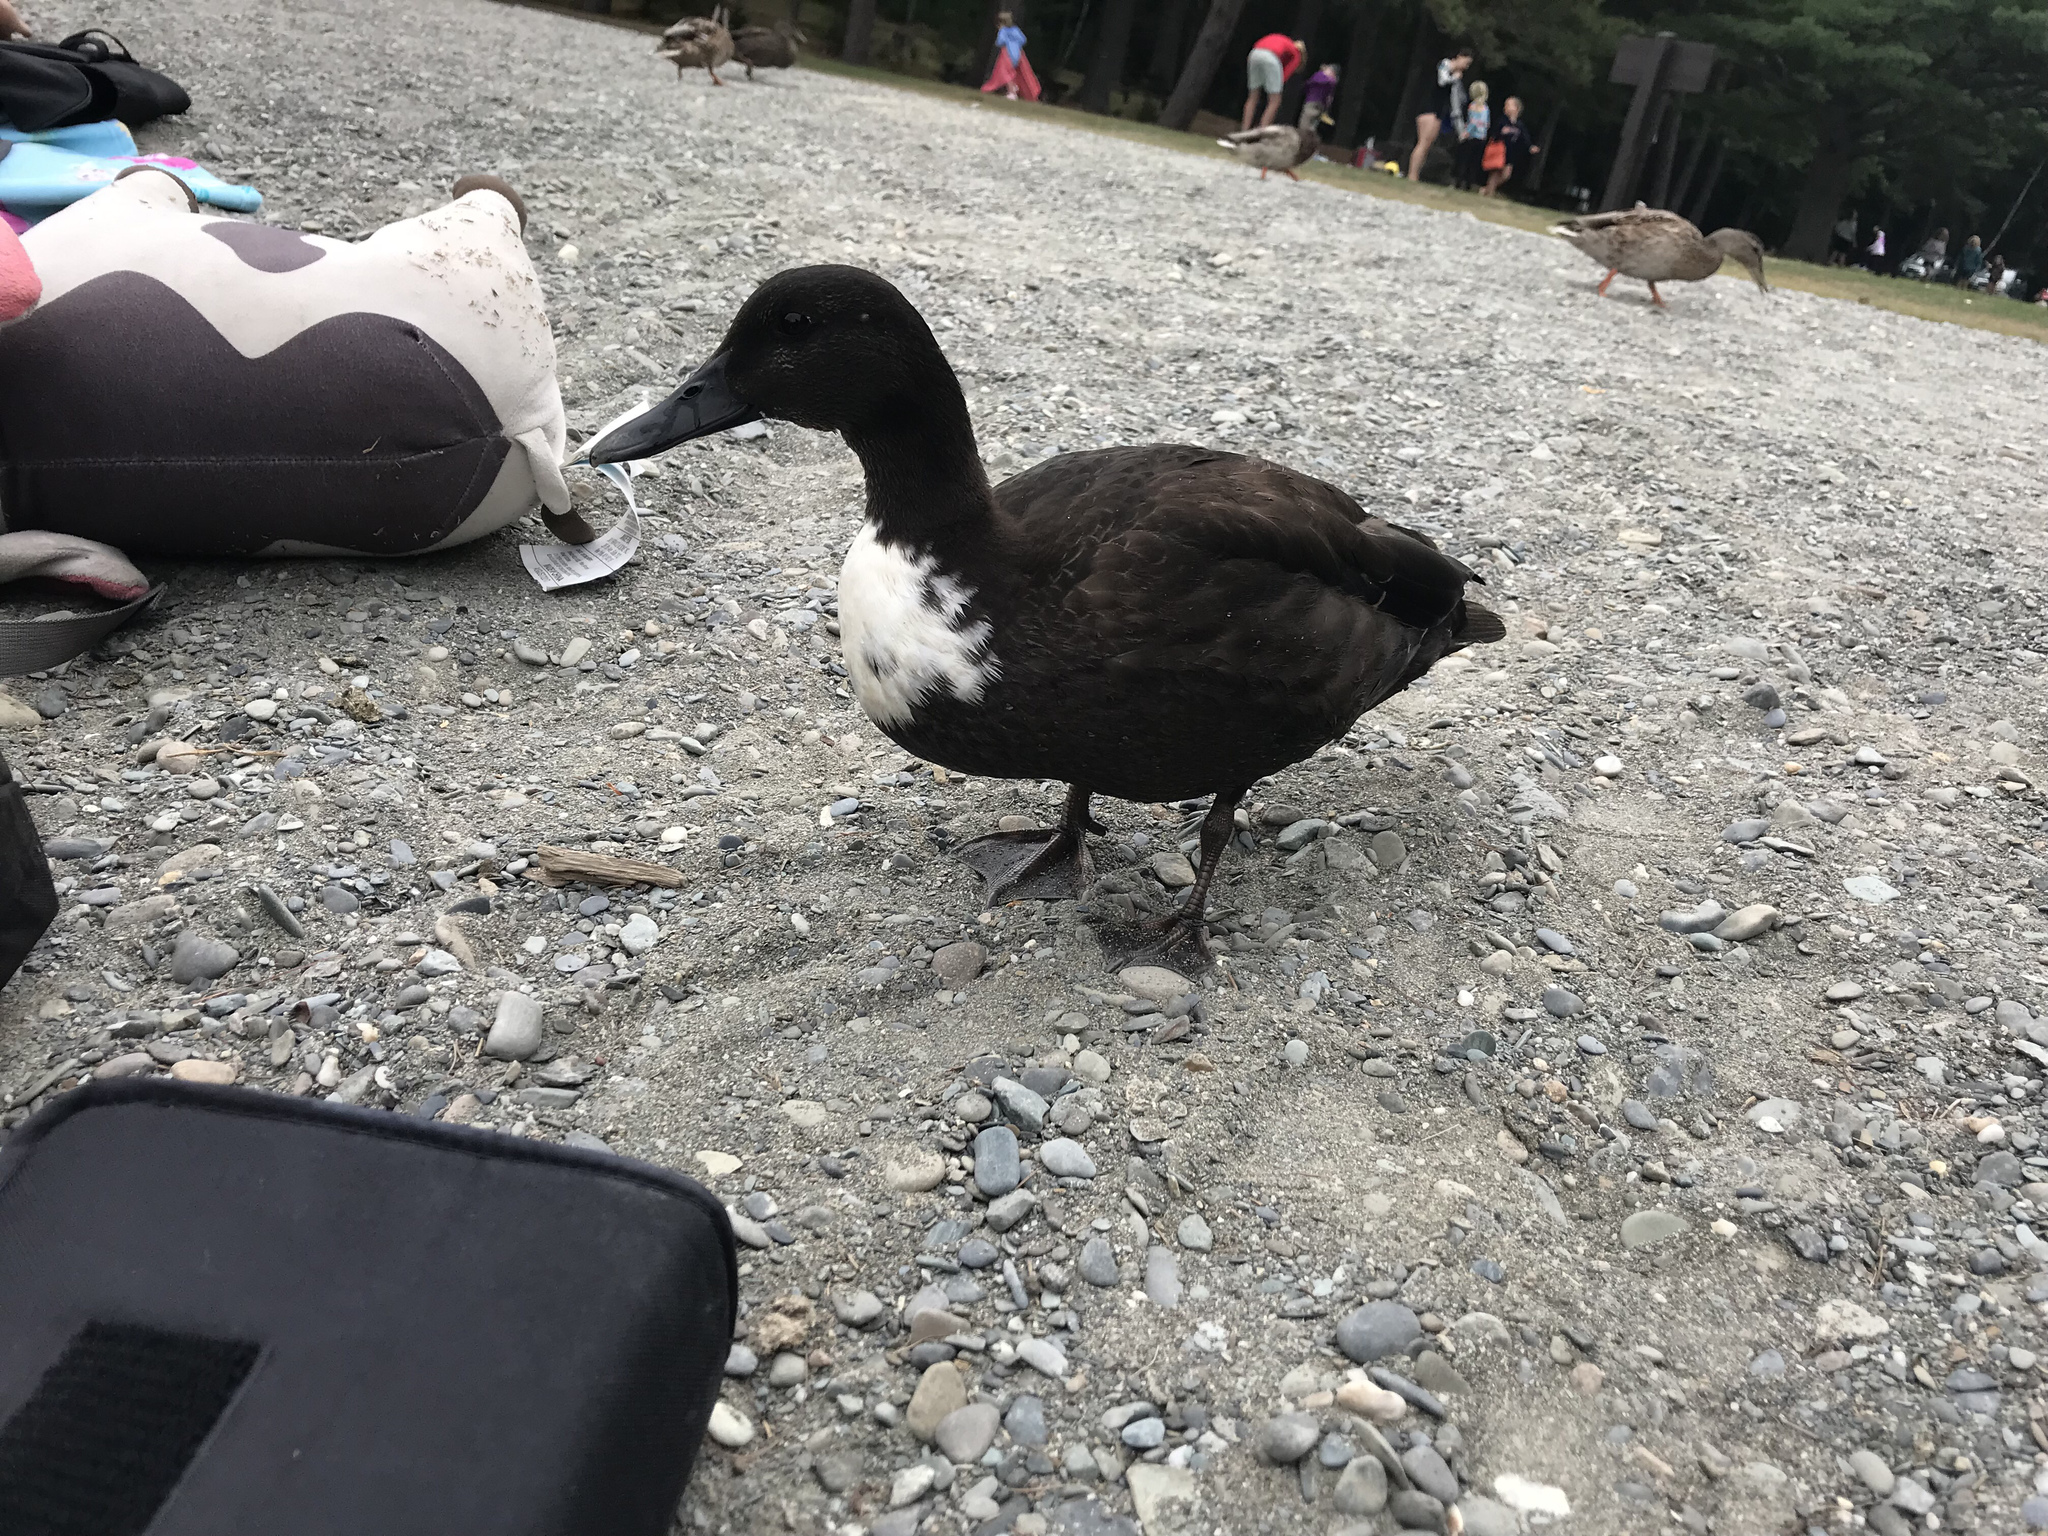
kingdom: Animalia
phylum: Chordata
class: Aves
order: Anseriformes
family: Anatidae
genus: Anas
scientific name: Anas platyrhynchos
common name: Mallard
